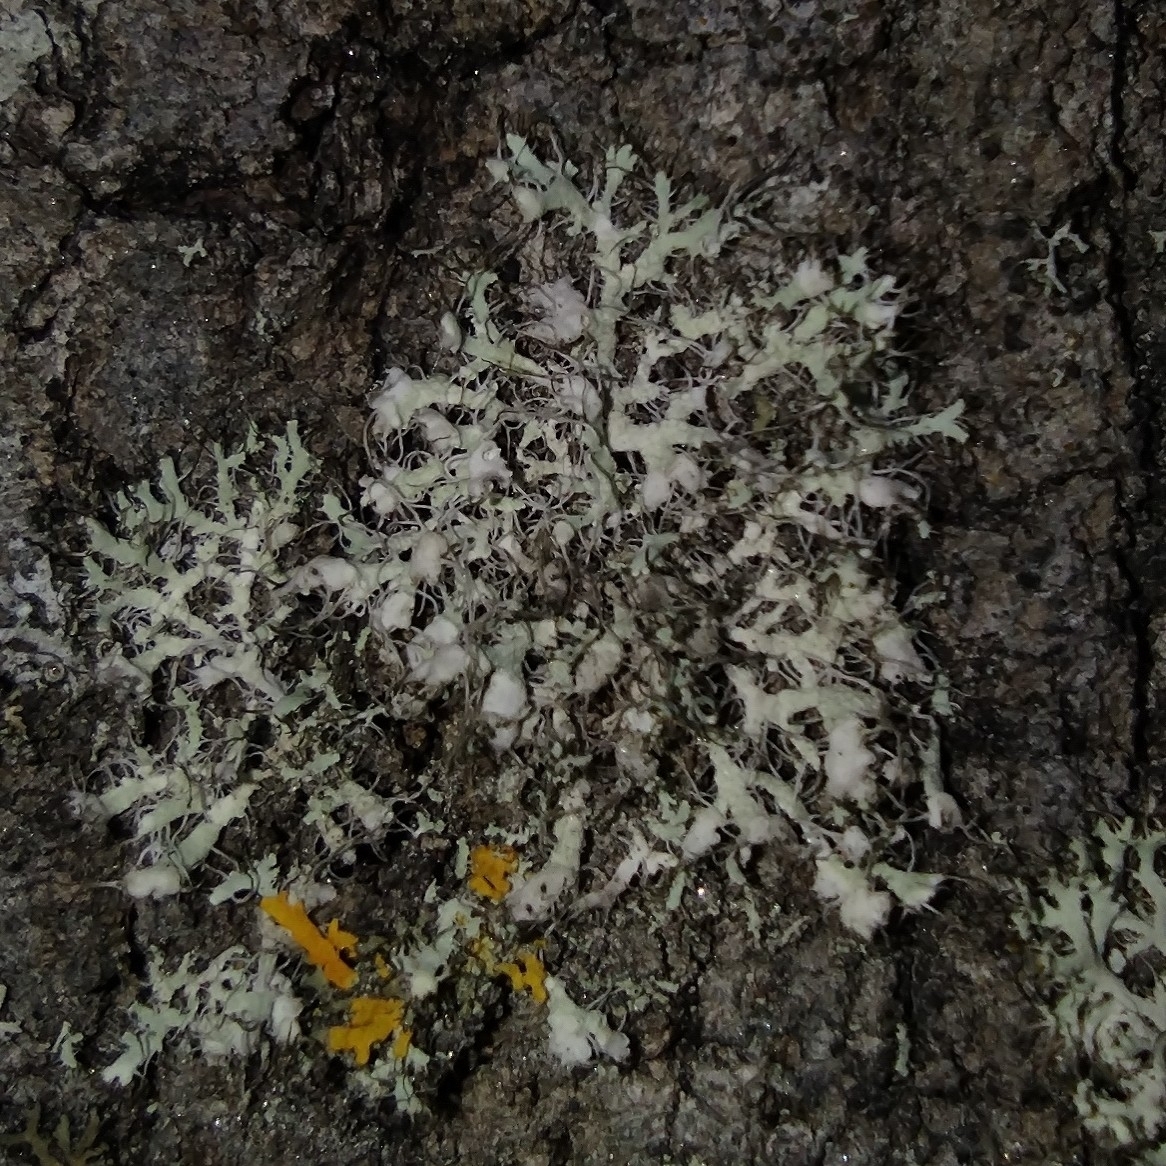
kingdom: Fungi
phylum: Ascomycota
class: Lecanoromycetes
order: Caliciales
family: Physciaceae
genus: Physcia
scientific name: Physcia tenella
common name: Fringed rosette lichen
